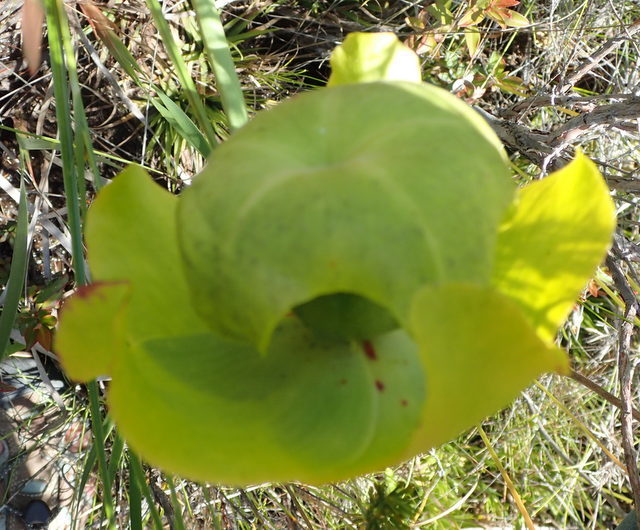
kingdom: Plantae
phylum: Tracheophyta
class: Magnoliopsida
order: Ericales
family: Sarraceniaceae
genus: Sarracenia
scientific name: Sarracenia flava
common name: Trumpets
